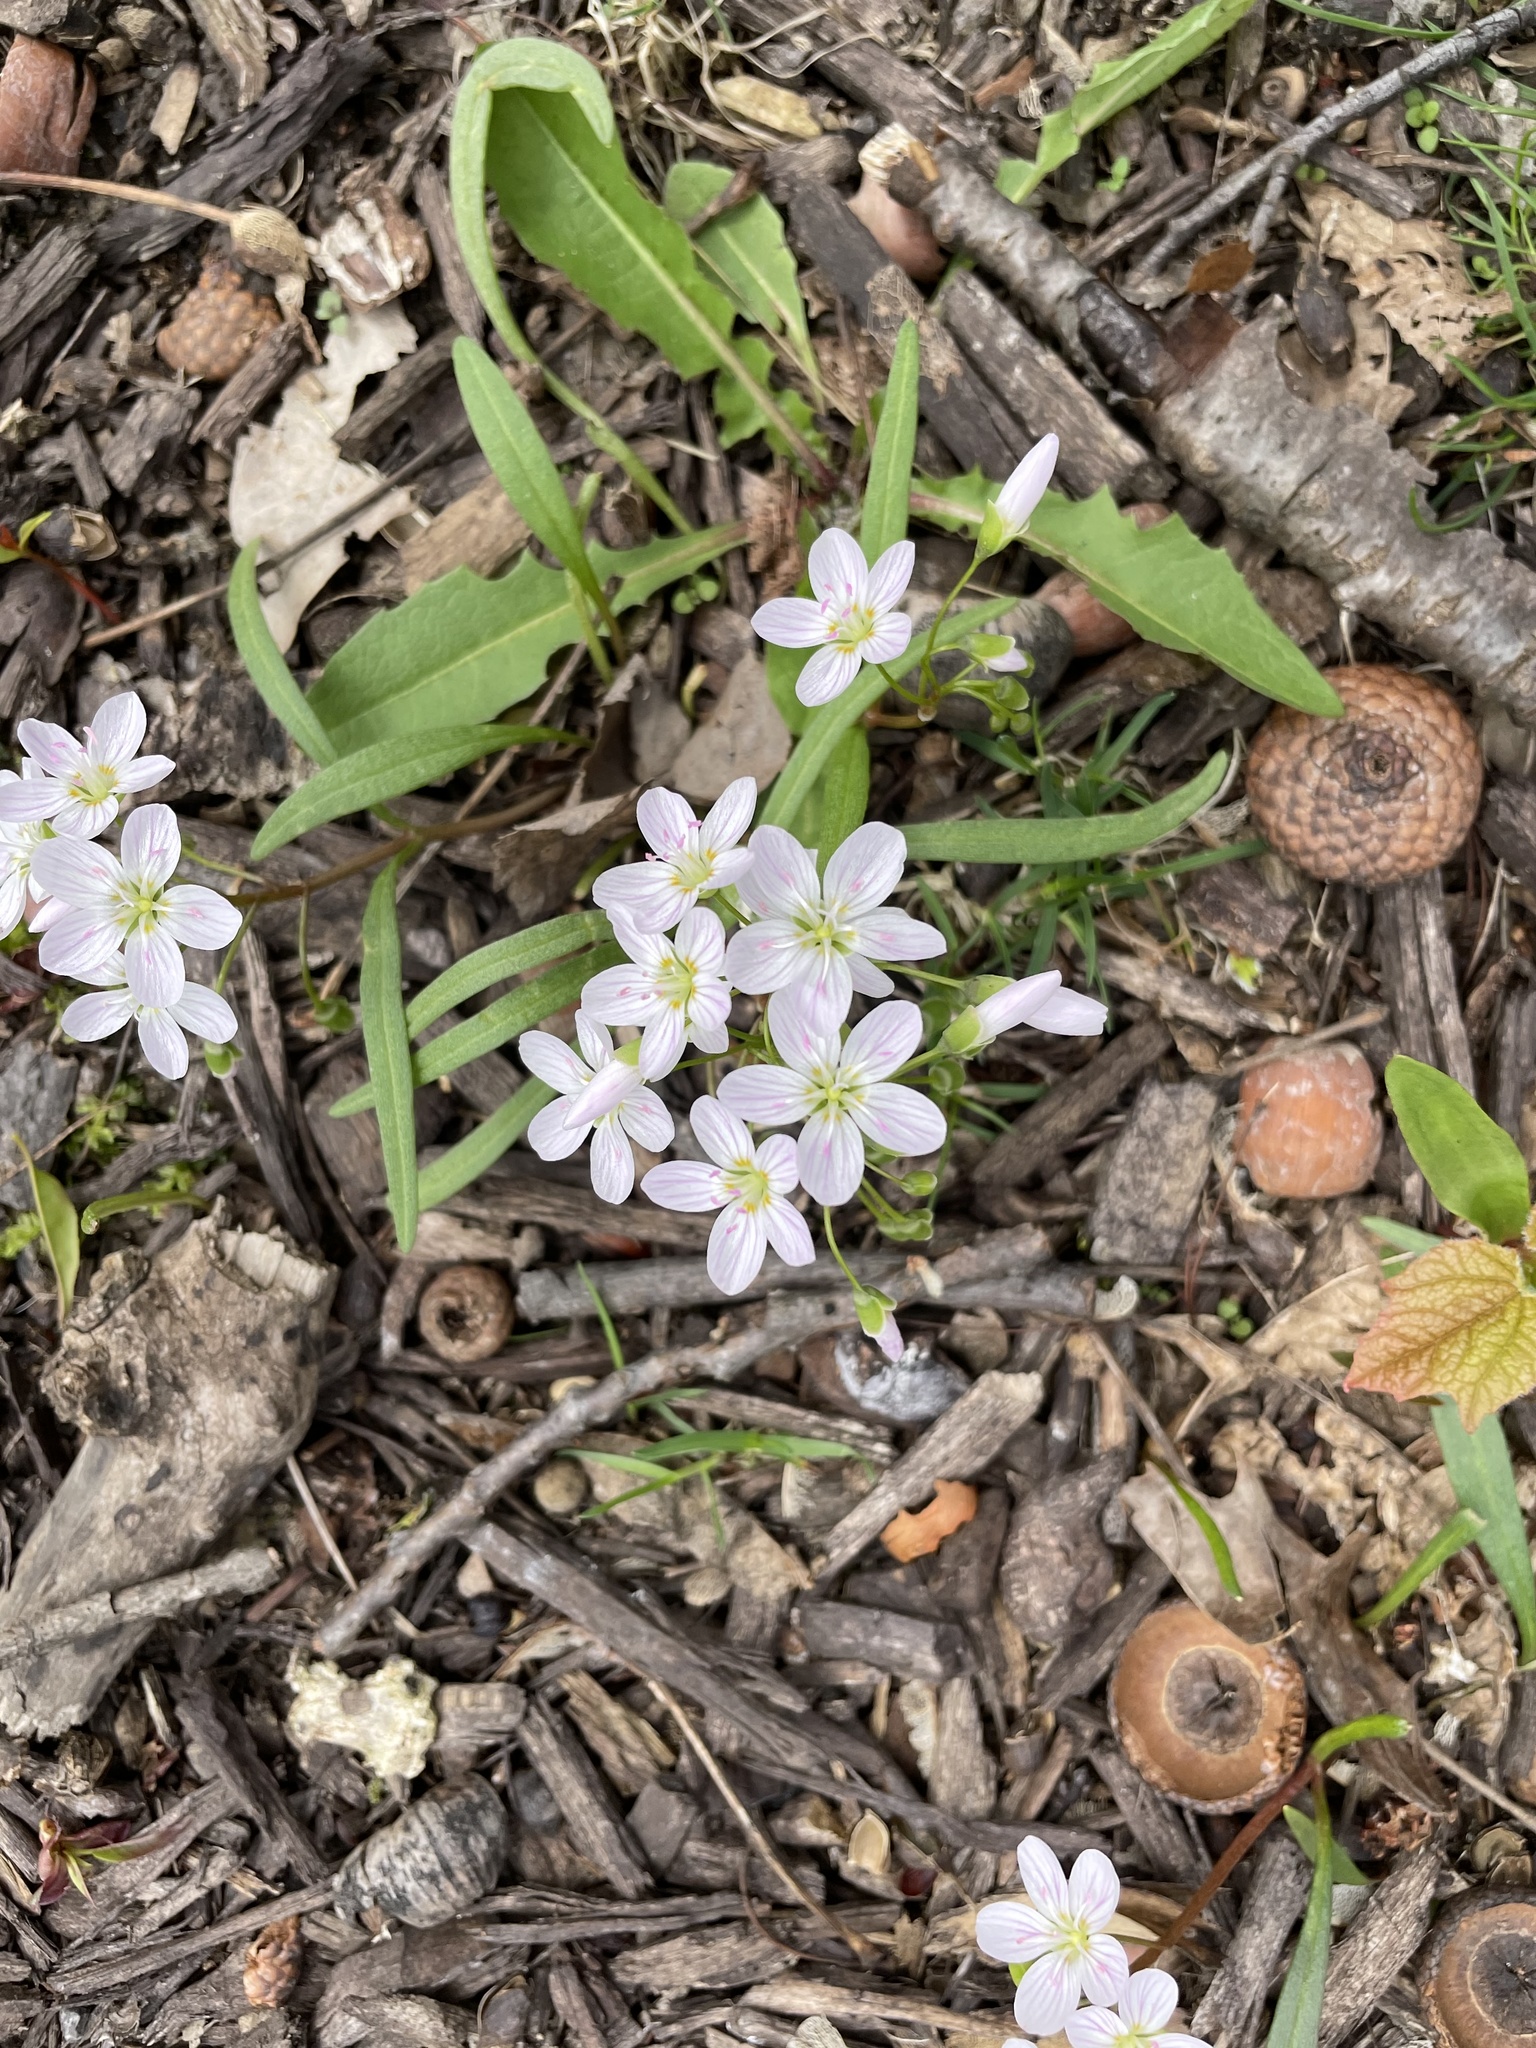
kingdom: Plantae
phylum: Tracheophyta
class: Magnoliopsida
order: Caryophyllales
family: Montiaceae
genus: Claytonia
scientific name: Claytonia virginica
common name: Virginia springbeauty
